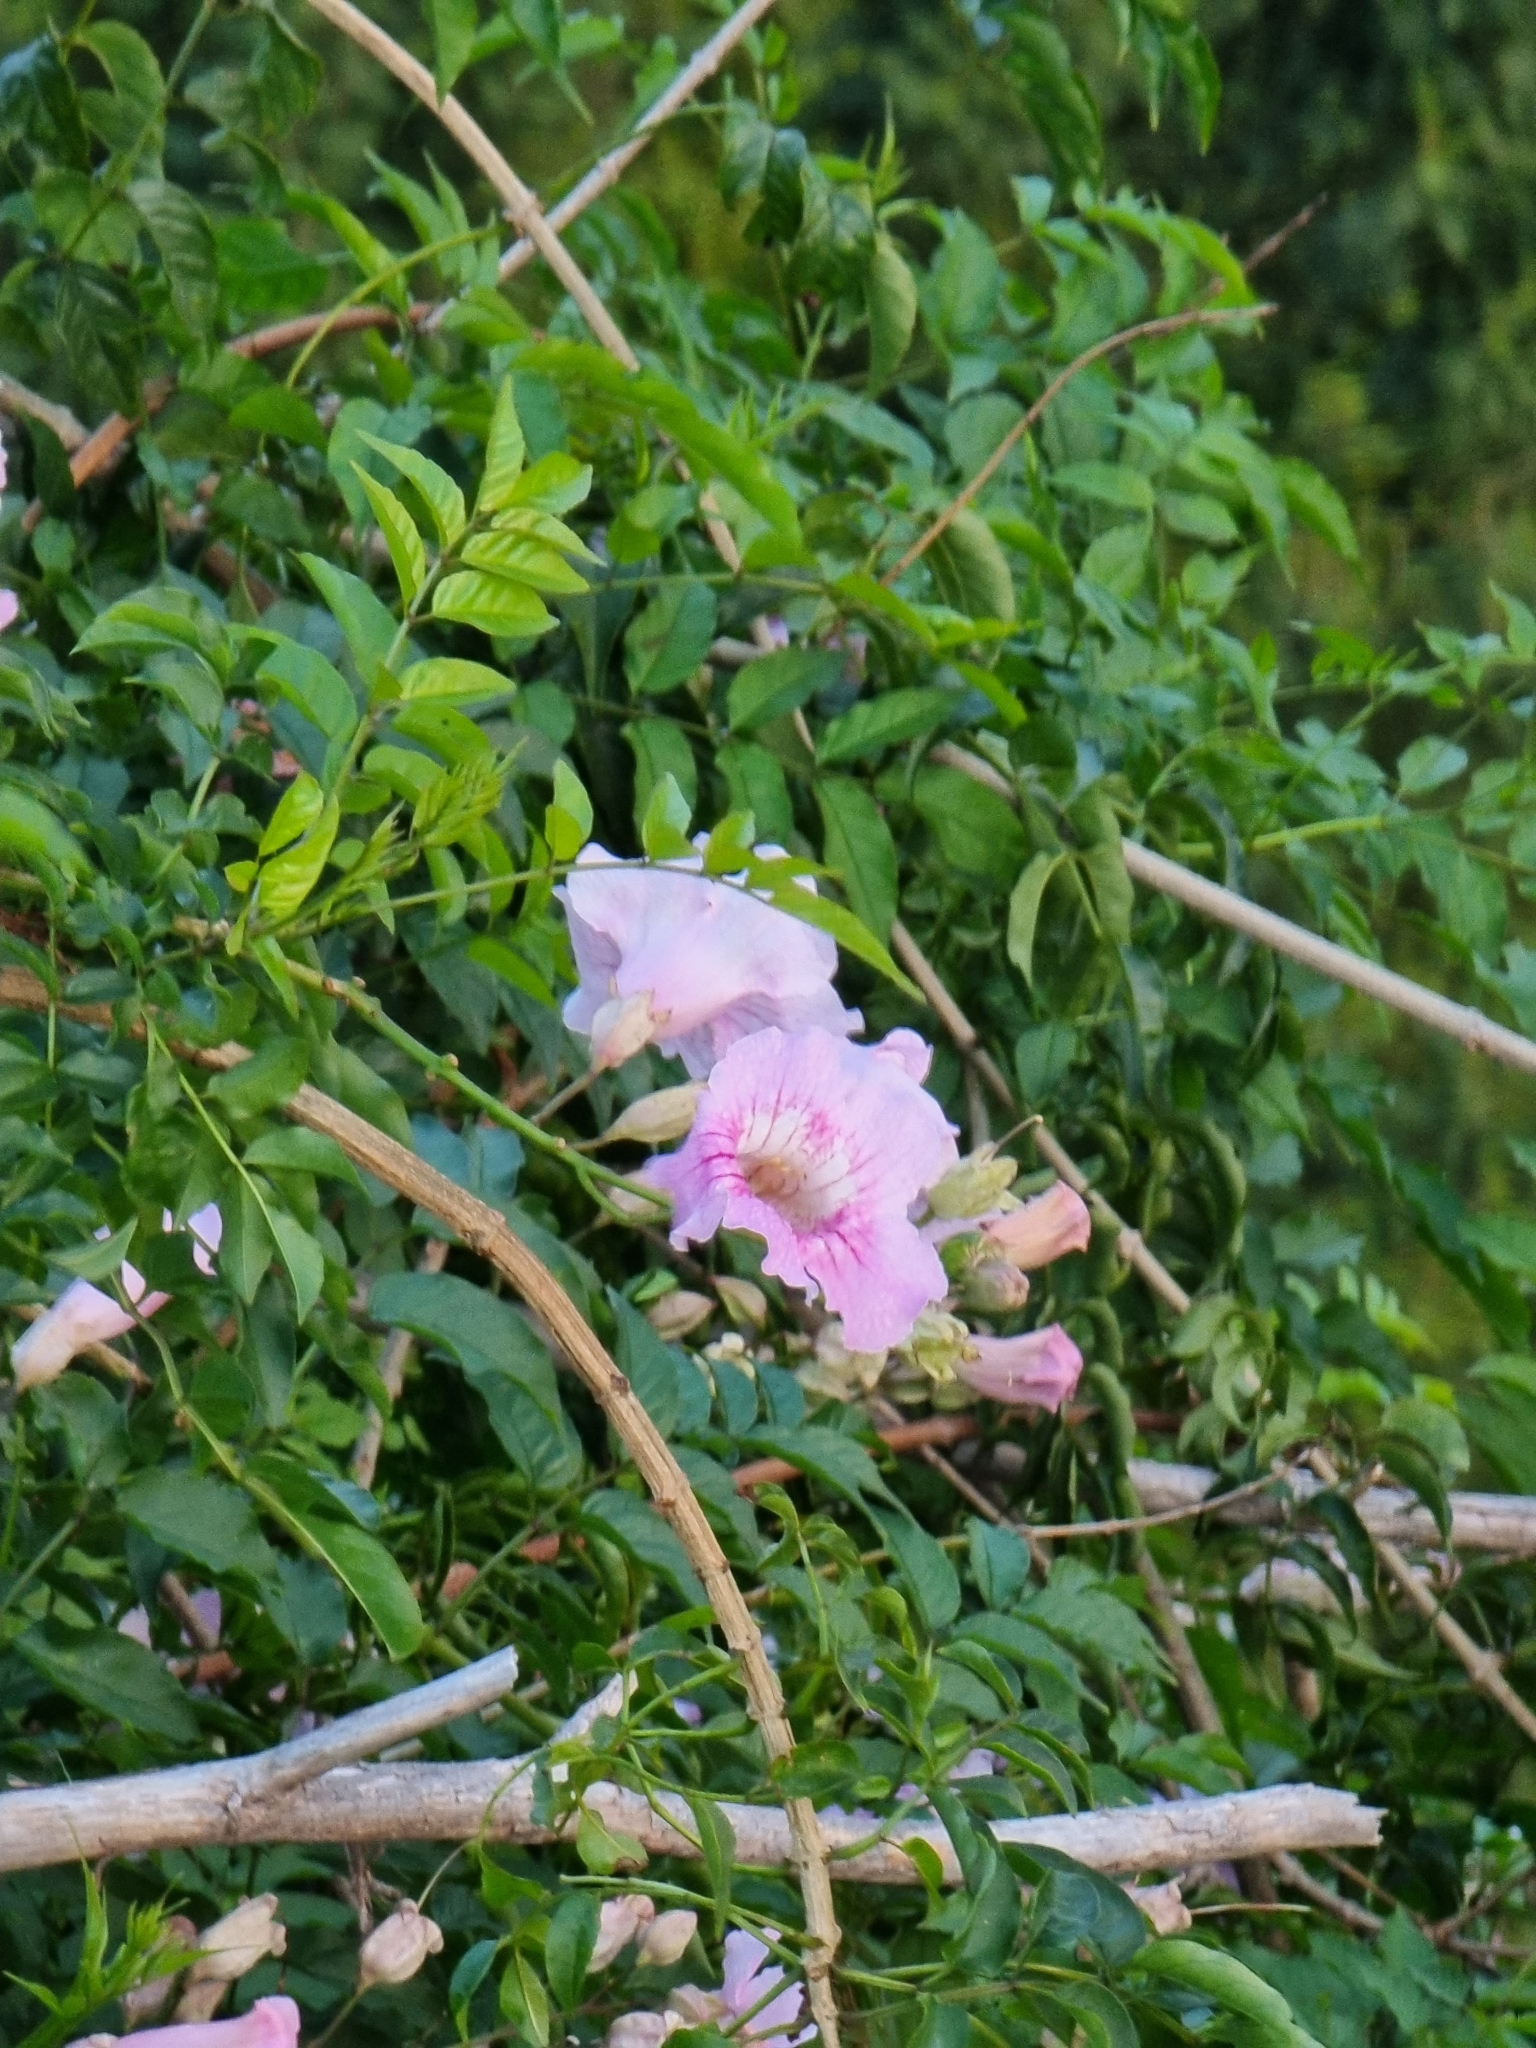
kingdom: Plantae
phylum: Tracheophyta
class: Magnoliopsida
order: Lamiales
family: Bignoniaceae
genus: Podranea
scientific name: Podranea ricasoliana
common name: Zimbabwe creeper
